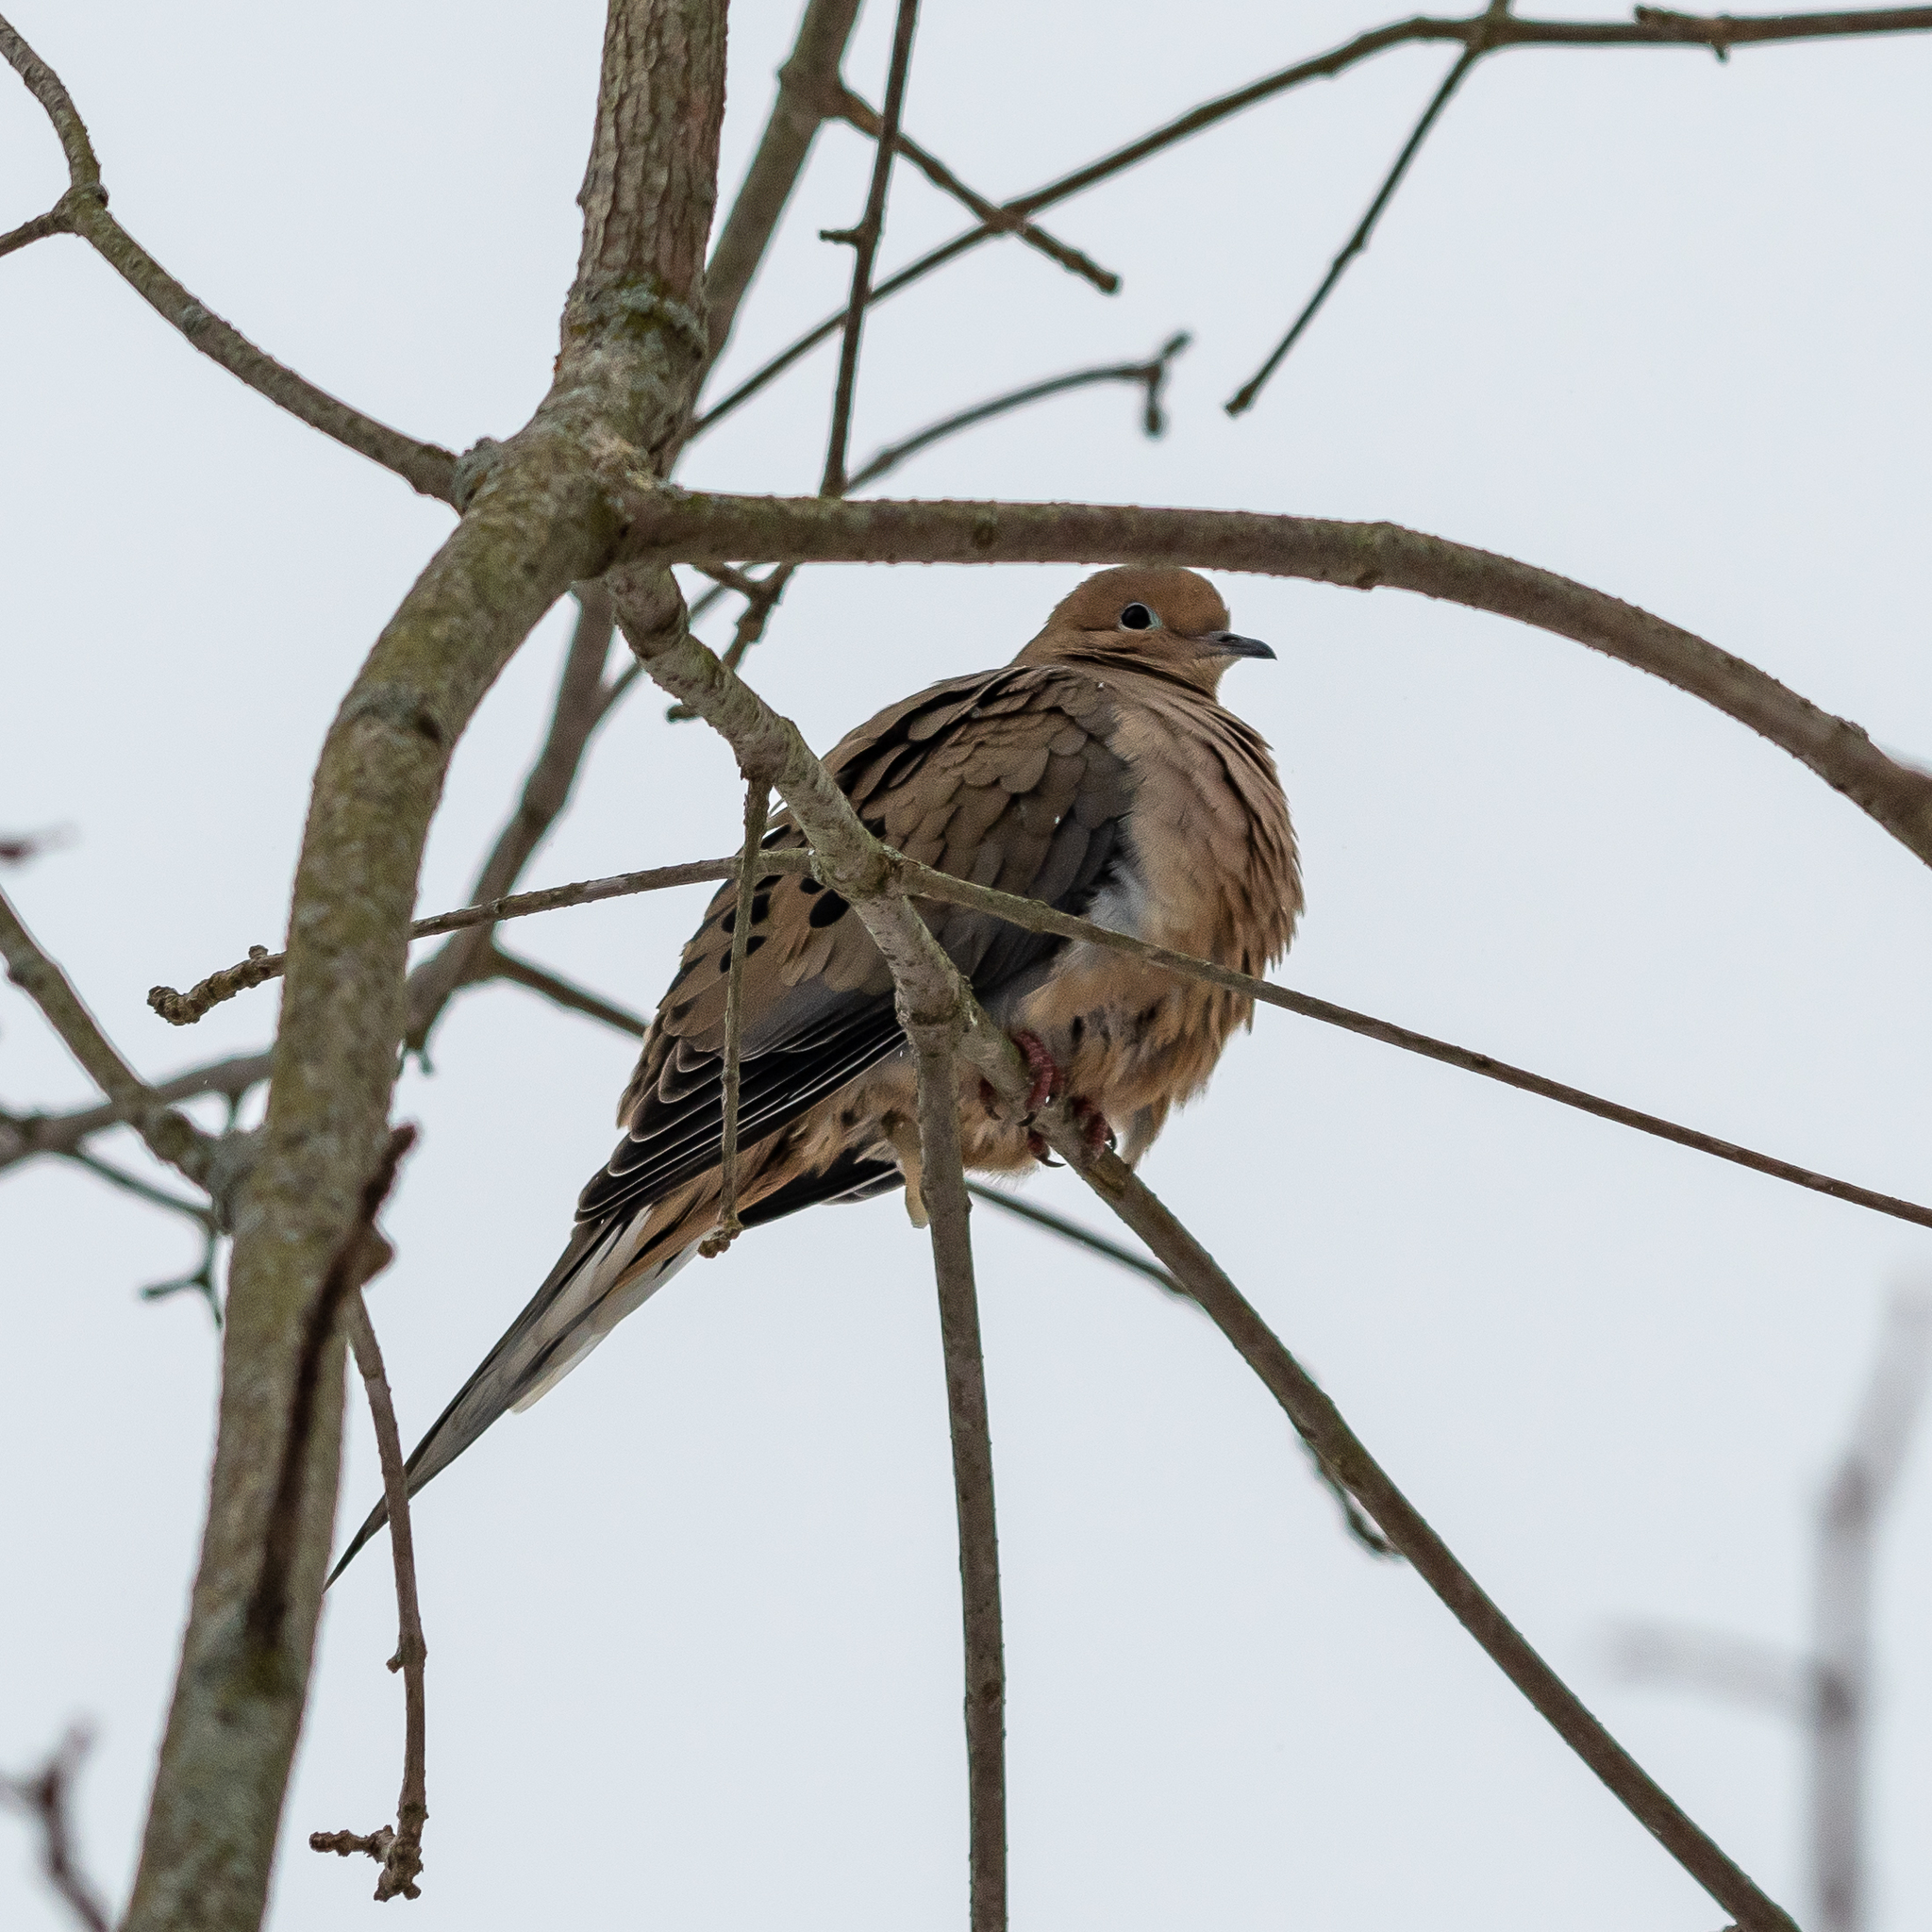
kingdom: Animalia
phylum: Chordata
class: Aves
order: Columbiformes
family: Columbidae
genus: Zenaida
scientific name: Zenaida macroura
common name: Mourning dove
